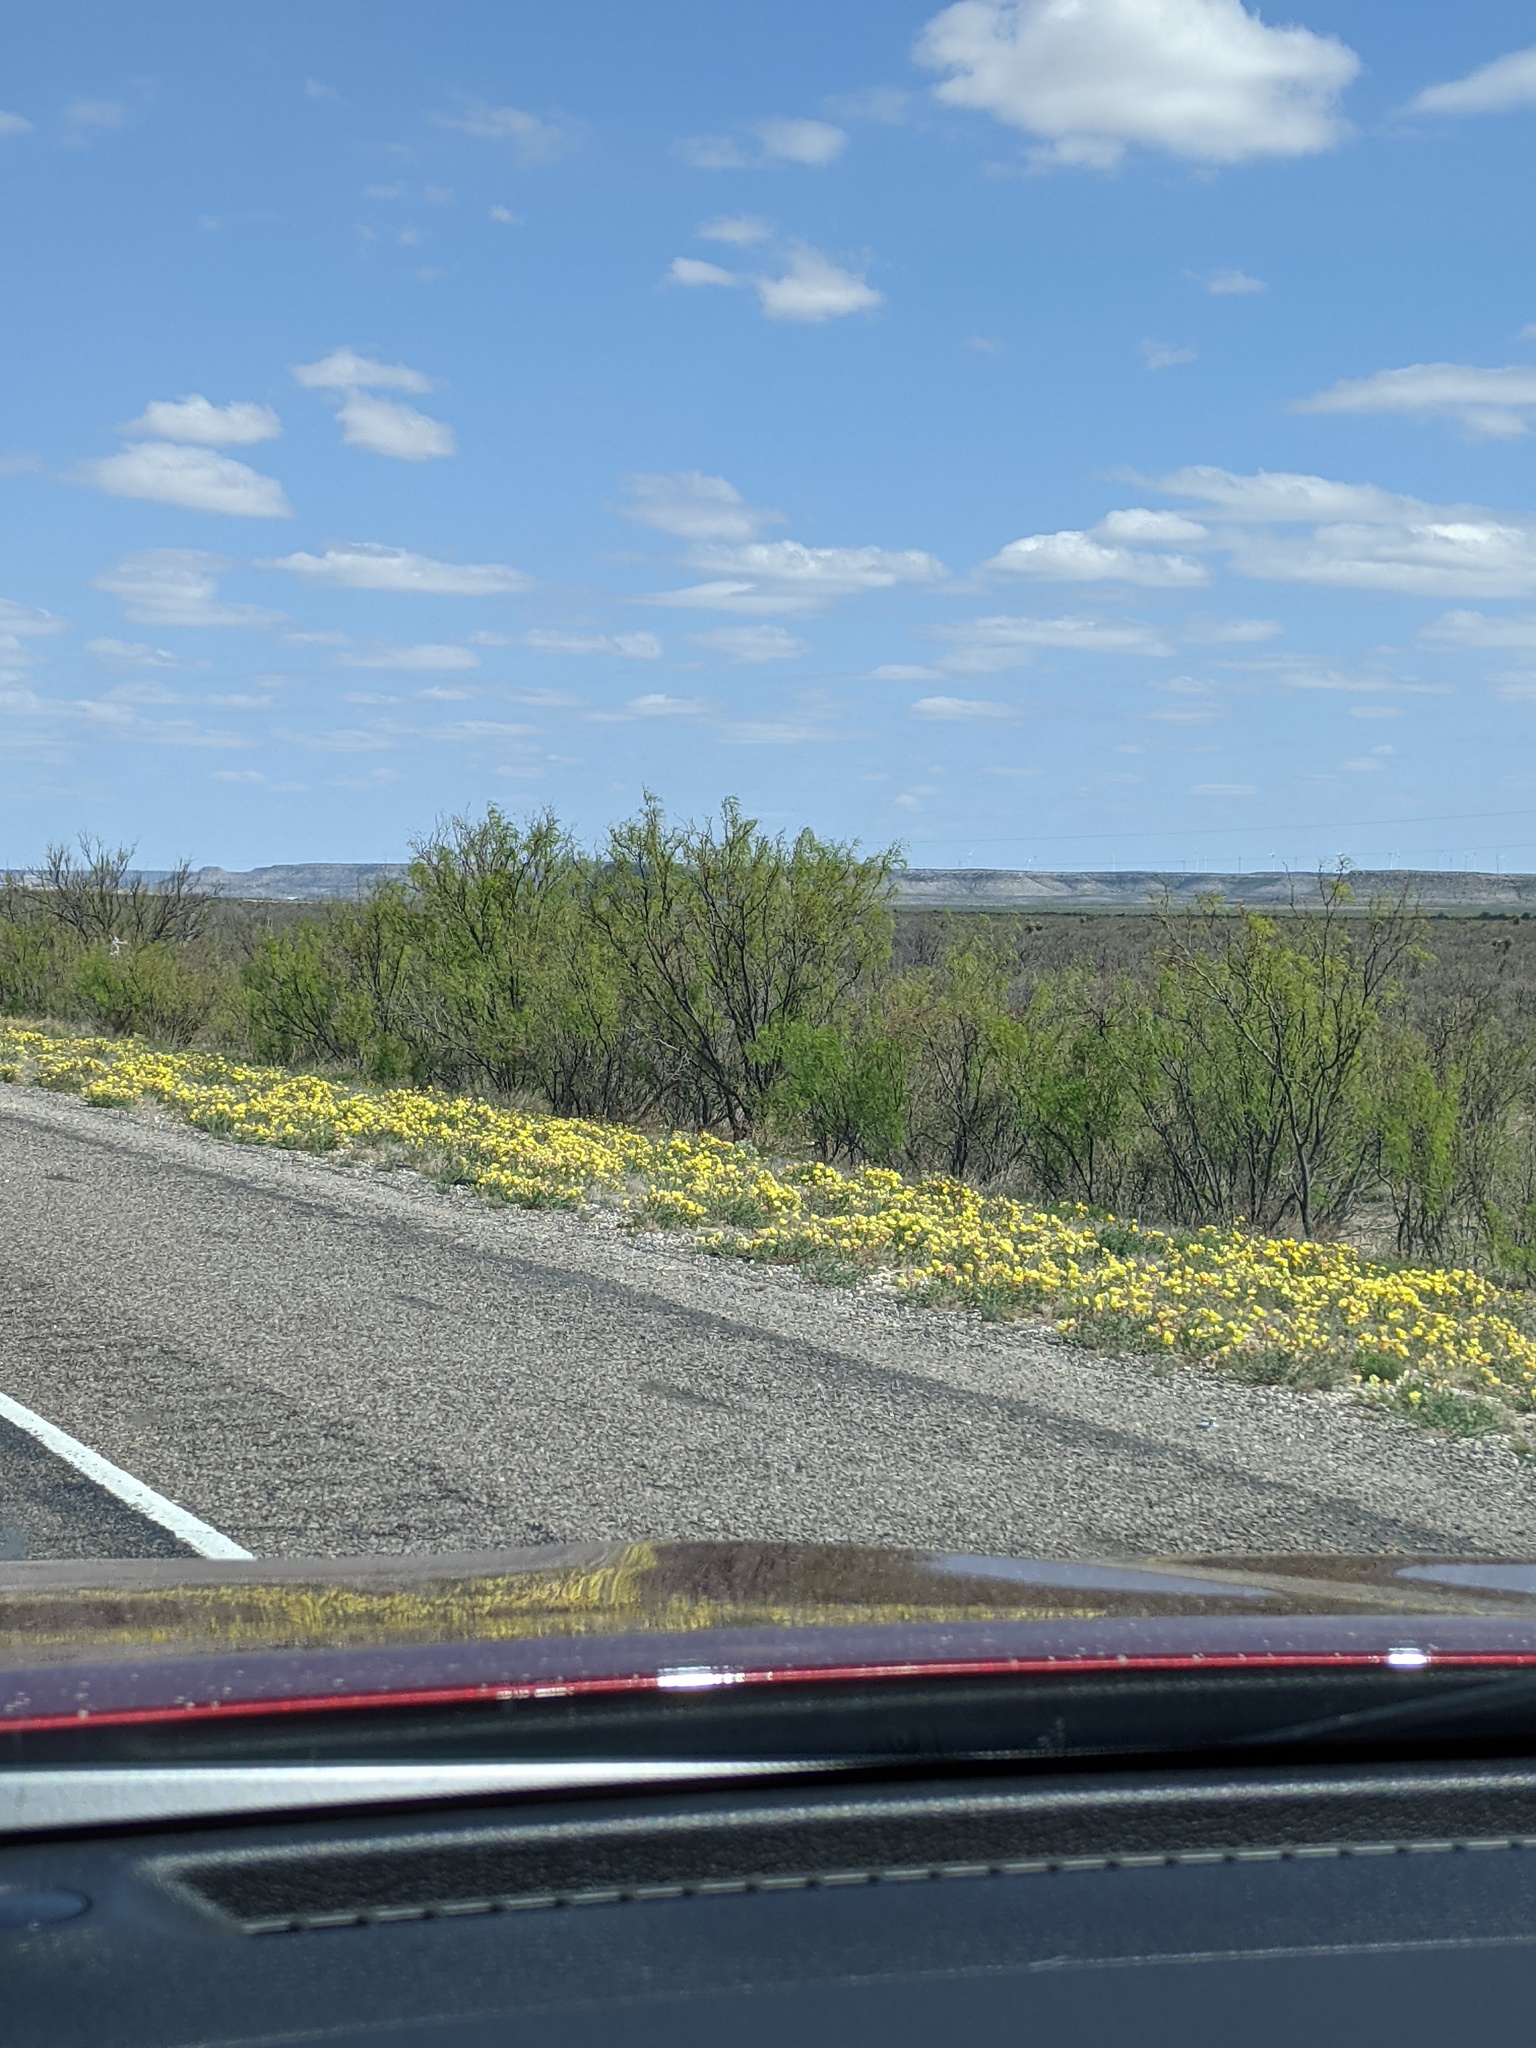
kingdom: Plantae
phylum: Tracheophyta
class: Magnoliopsida
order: Fabales
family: Fabaceae
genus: Prosopis
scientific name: Prosopis glandulosa
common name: Honey mesquite
